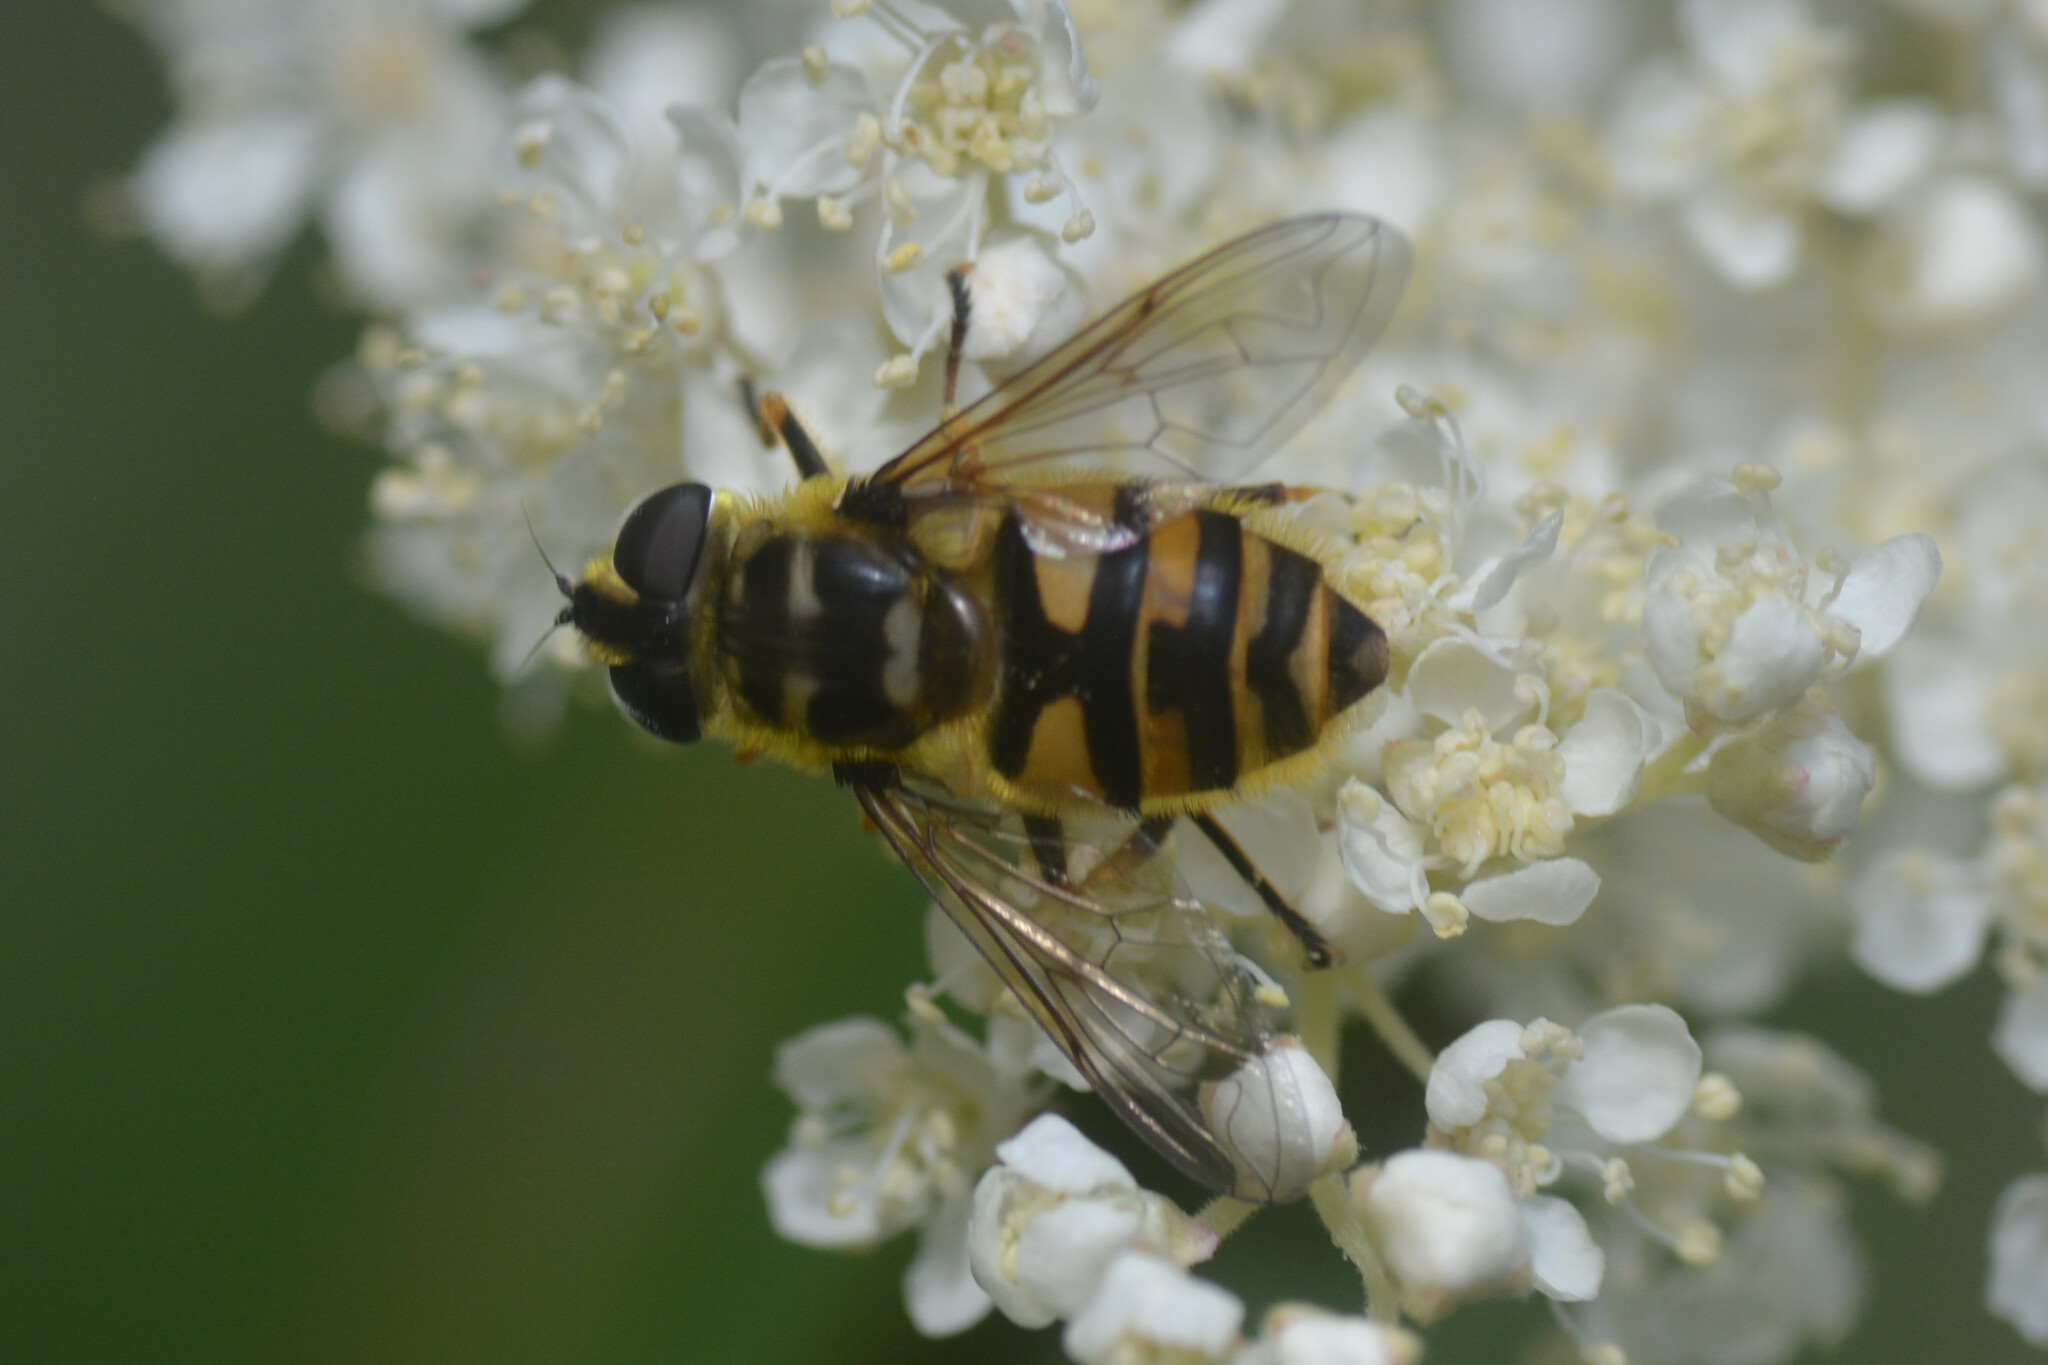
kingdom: Animalia
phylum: Arthropoda
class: Insecta
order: Diptera
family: Syrphidae
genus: Myathropa
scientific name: Myathropa florea
